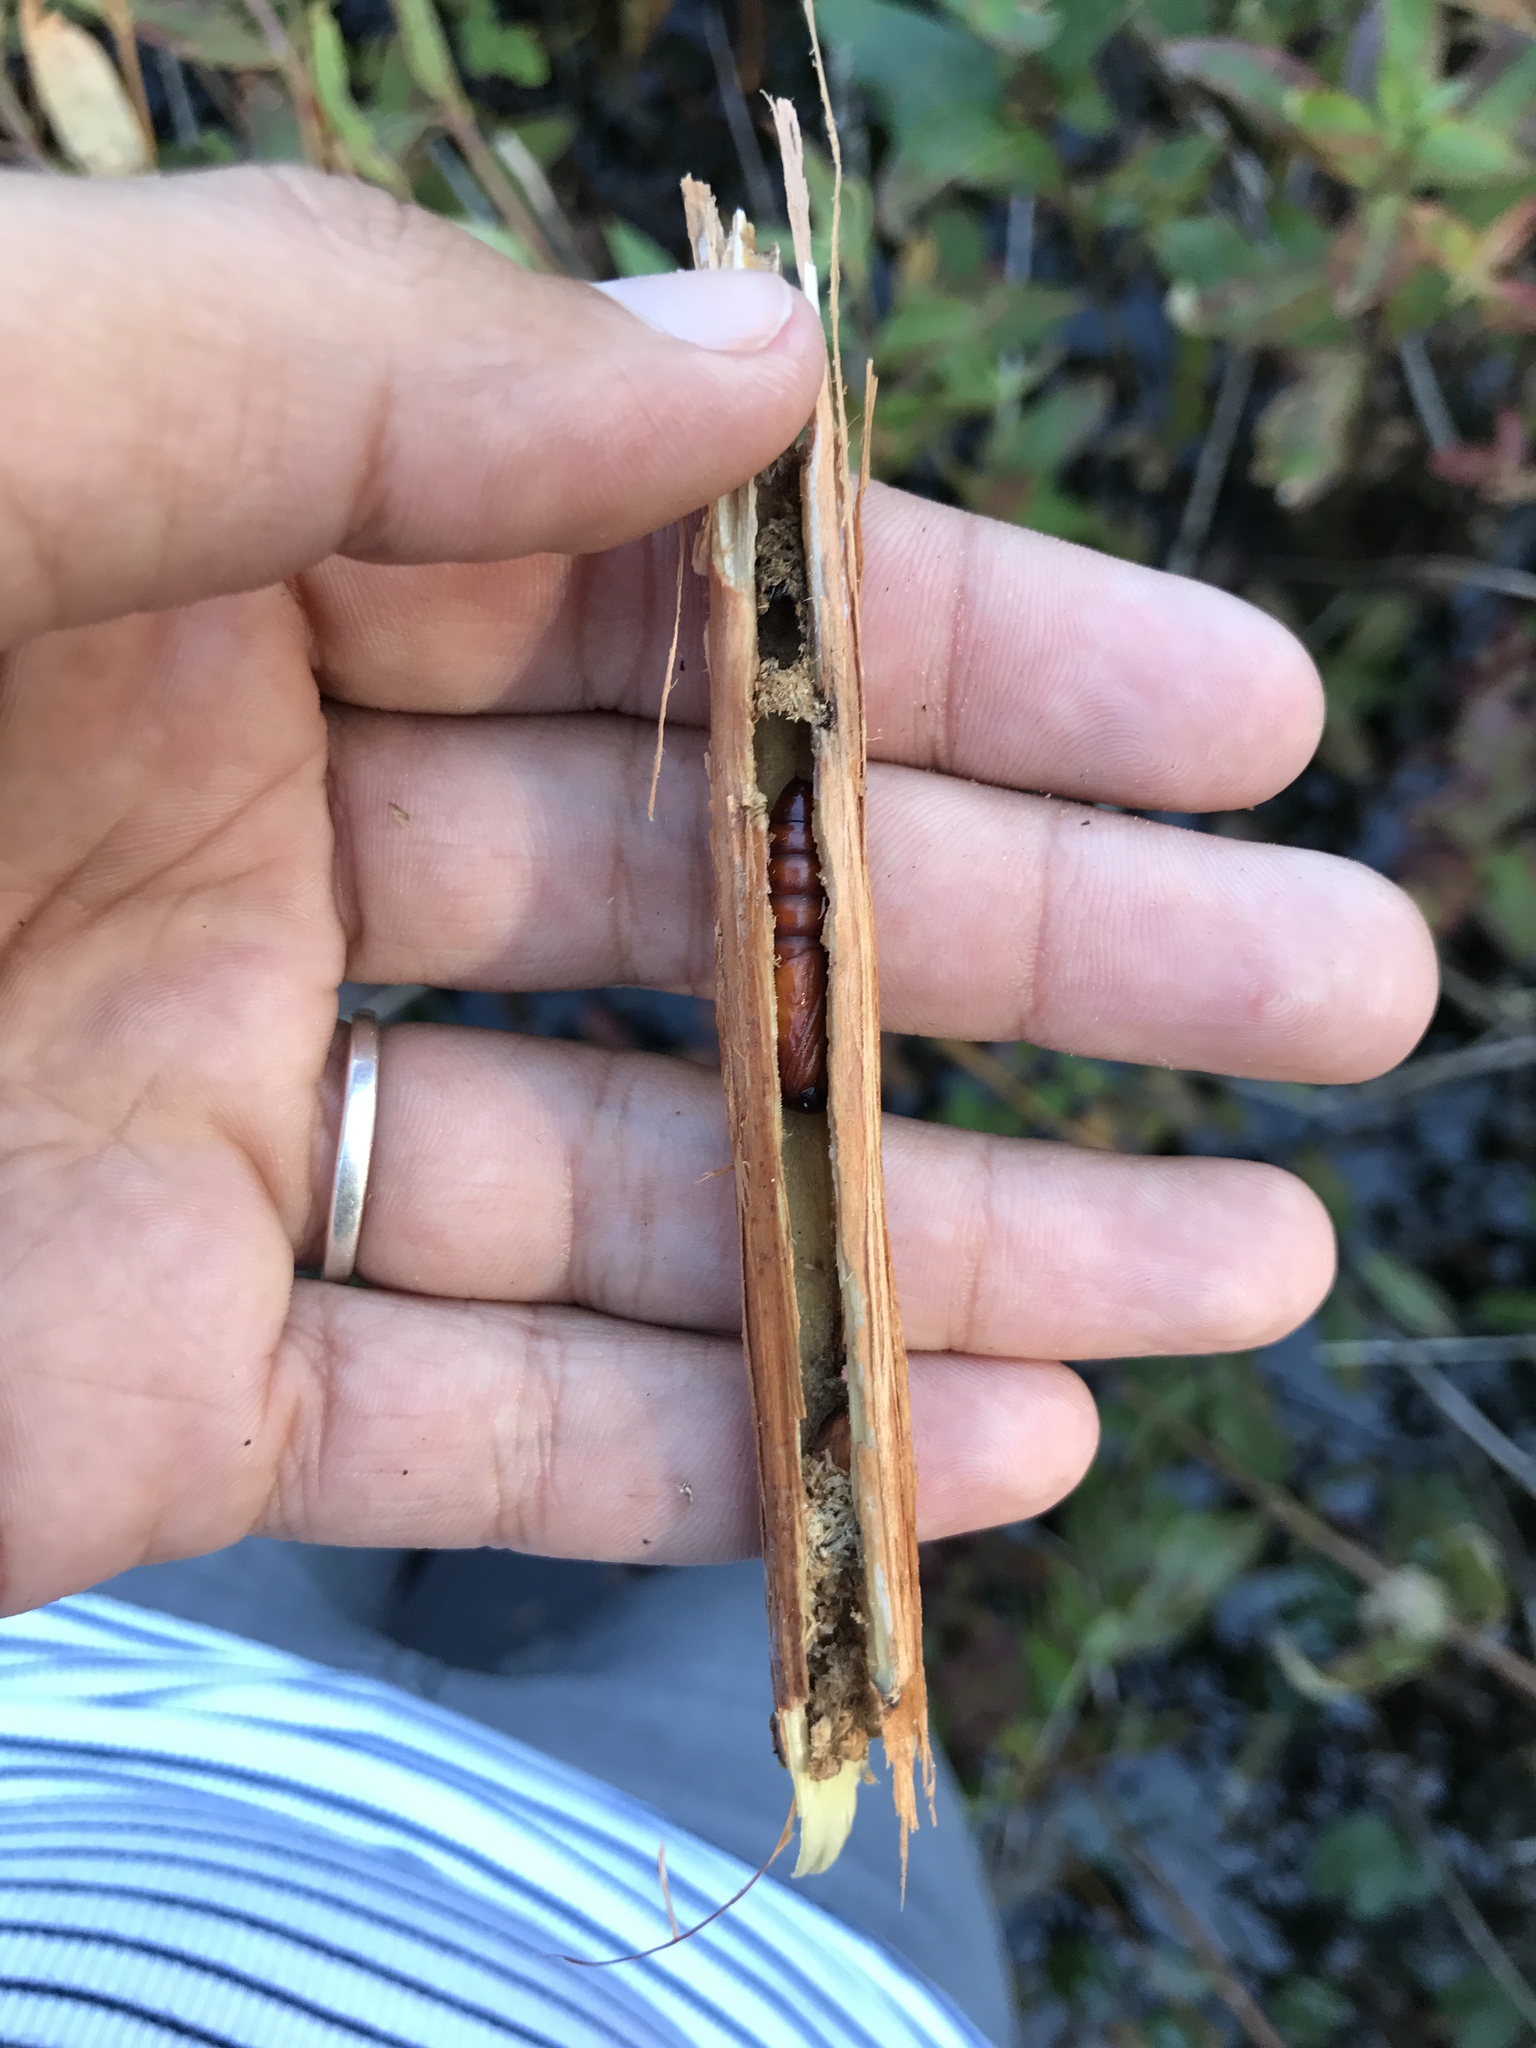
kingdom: Animalia
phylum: Arthropoda
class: Insecta
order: Lepidoptera
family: Noctuidae
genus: Papaipema
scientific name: Papaipema sulphurata
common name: Water-willow stem borer
